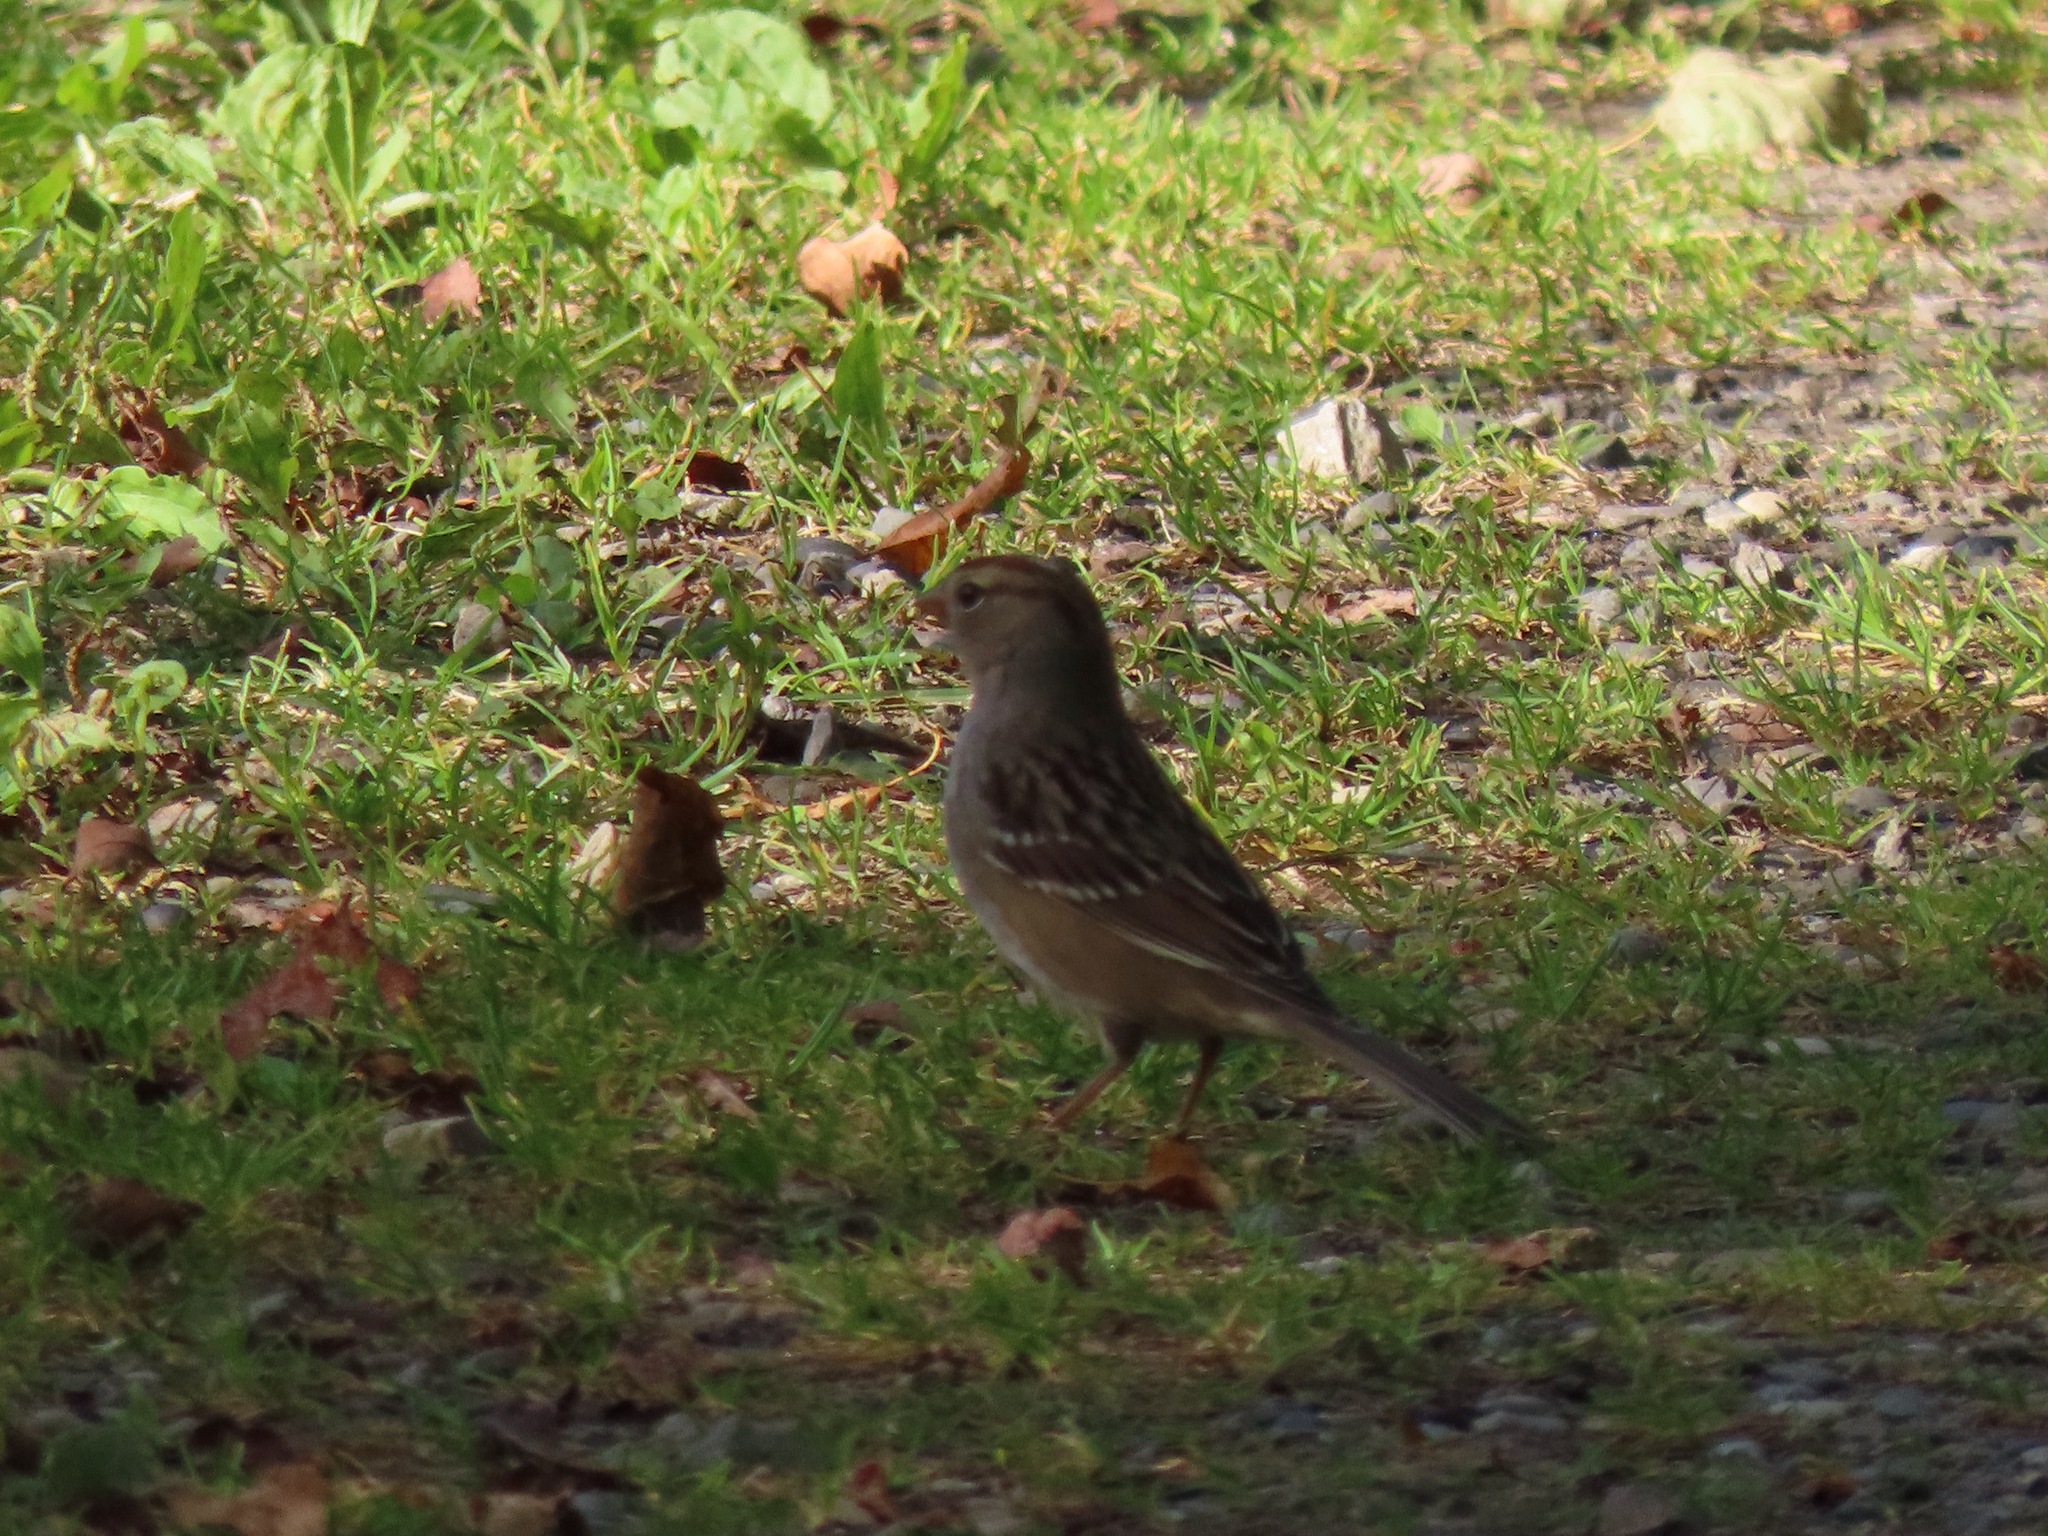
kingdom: Animalia
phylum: Chordata
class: Aves
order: Passeriformes
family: Passerellidae
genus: Zonotrichia
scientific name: Zonotrichia leucophrys
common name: White-crowned sparrow
